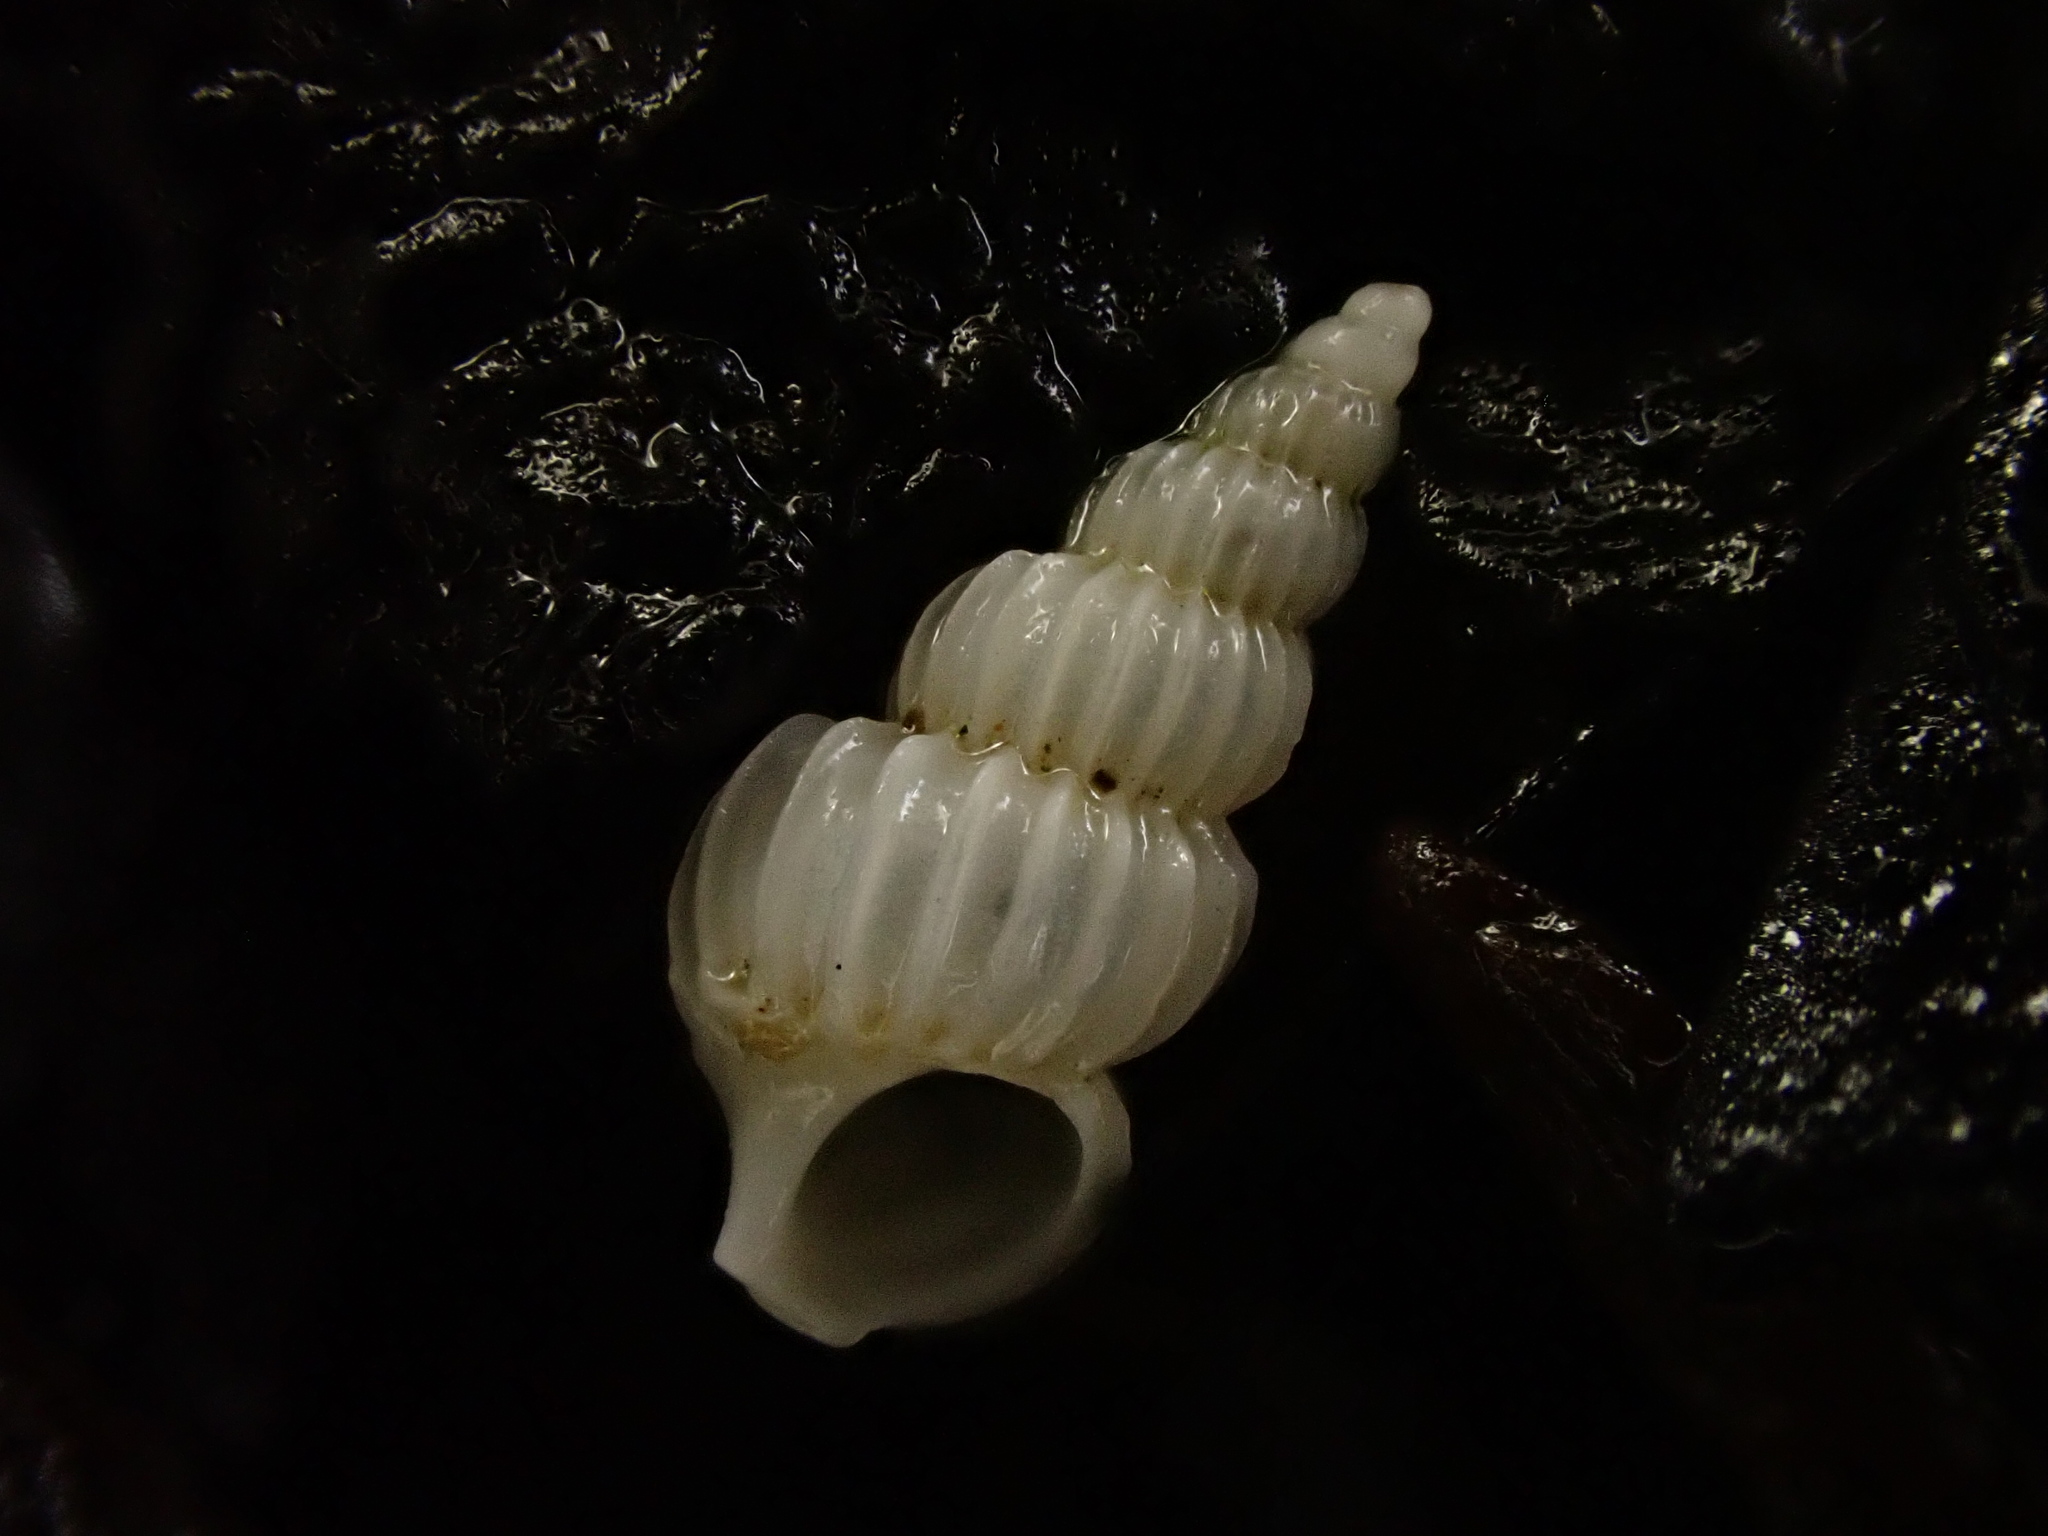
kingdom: Animalia
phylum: Mollusca
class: Gastropoda
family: Epitoniidae
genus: Epitonium
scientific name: Epitonium jukesianum
